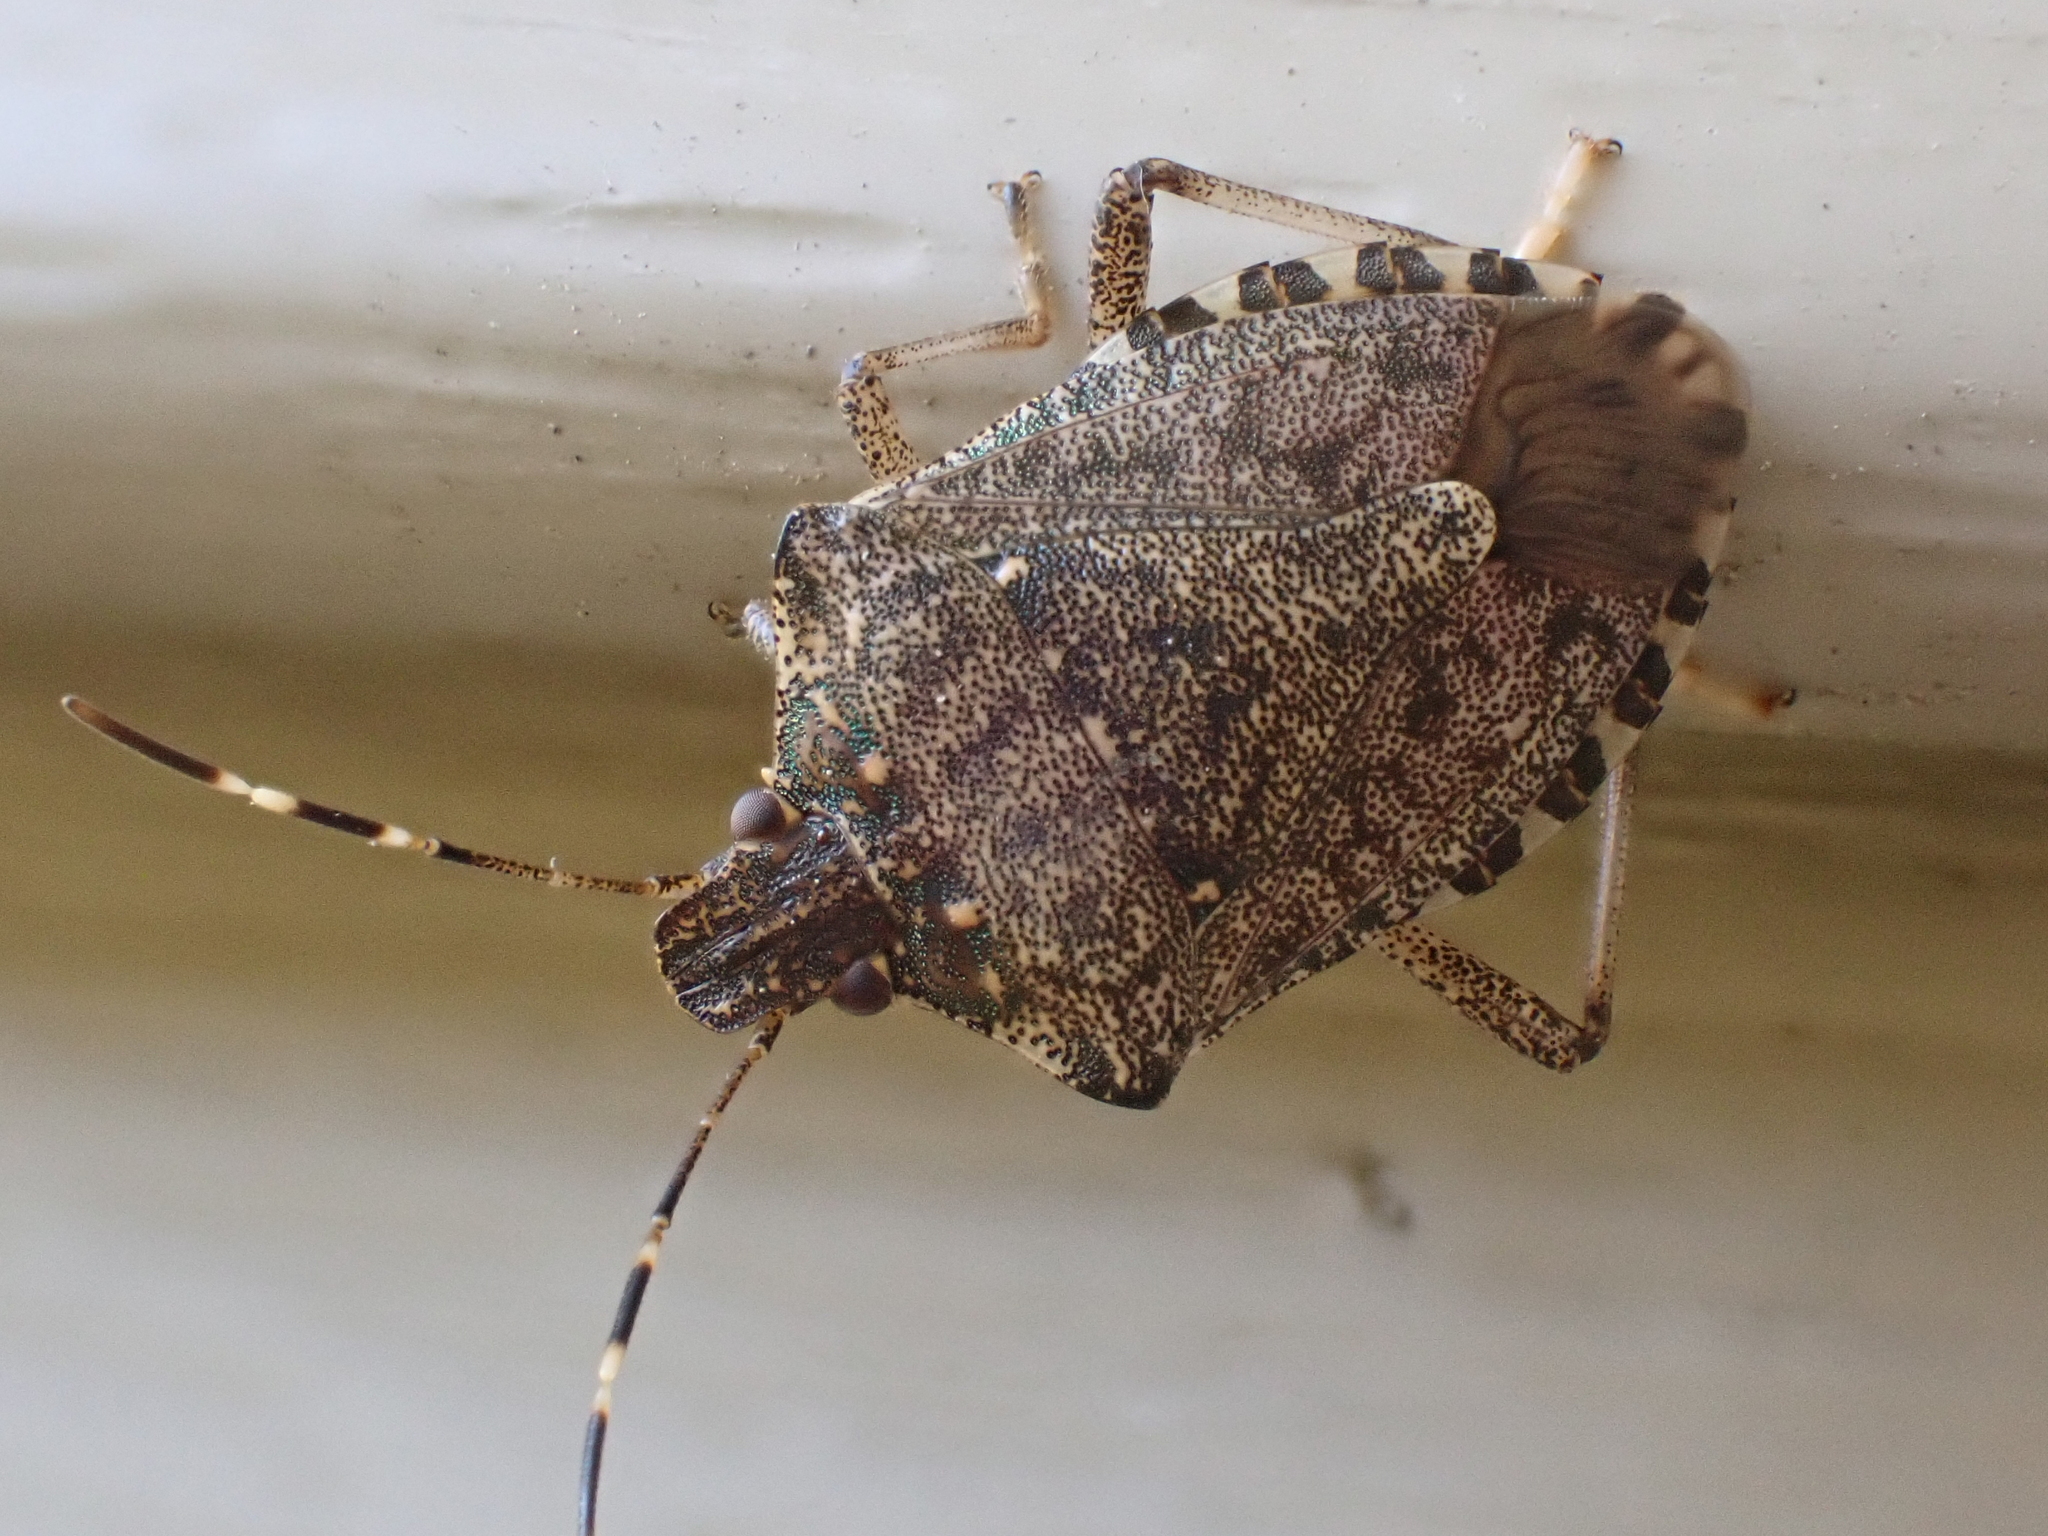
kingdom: Animalia
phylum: Arthropoda
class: Insecta
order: Hemiptera
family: Pentatomidae
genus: Halyomorpha
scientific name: Halyomorpha halys
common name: Brown marmorated stink bug
